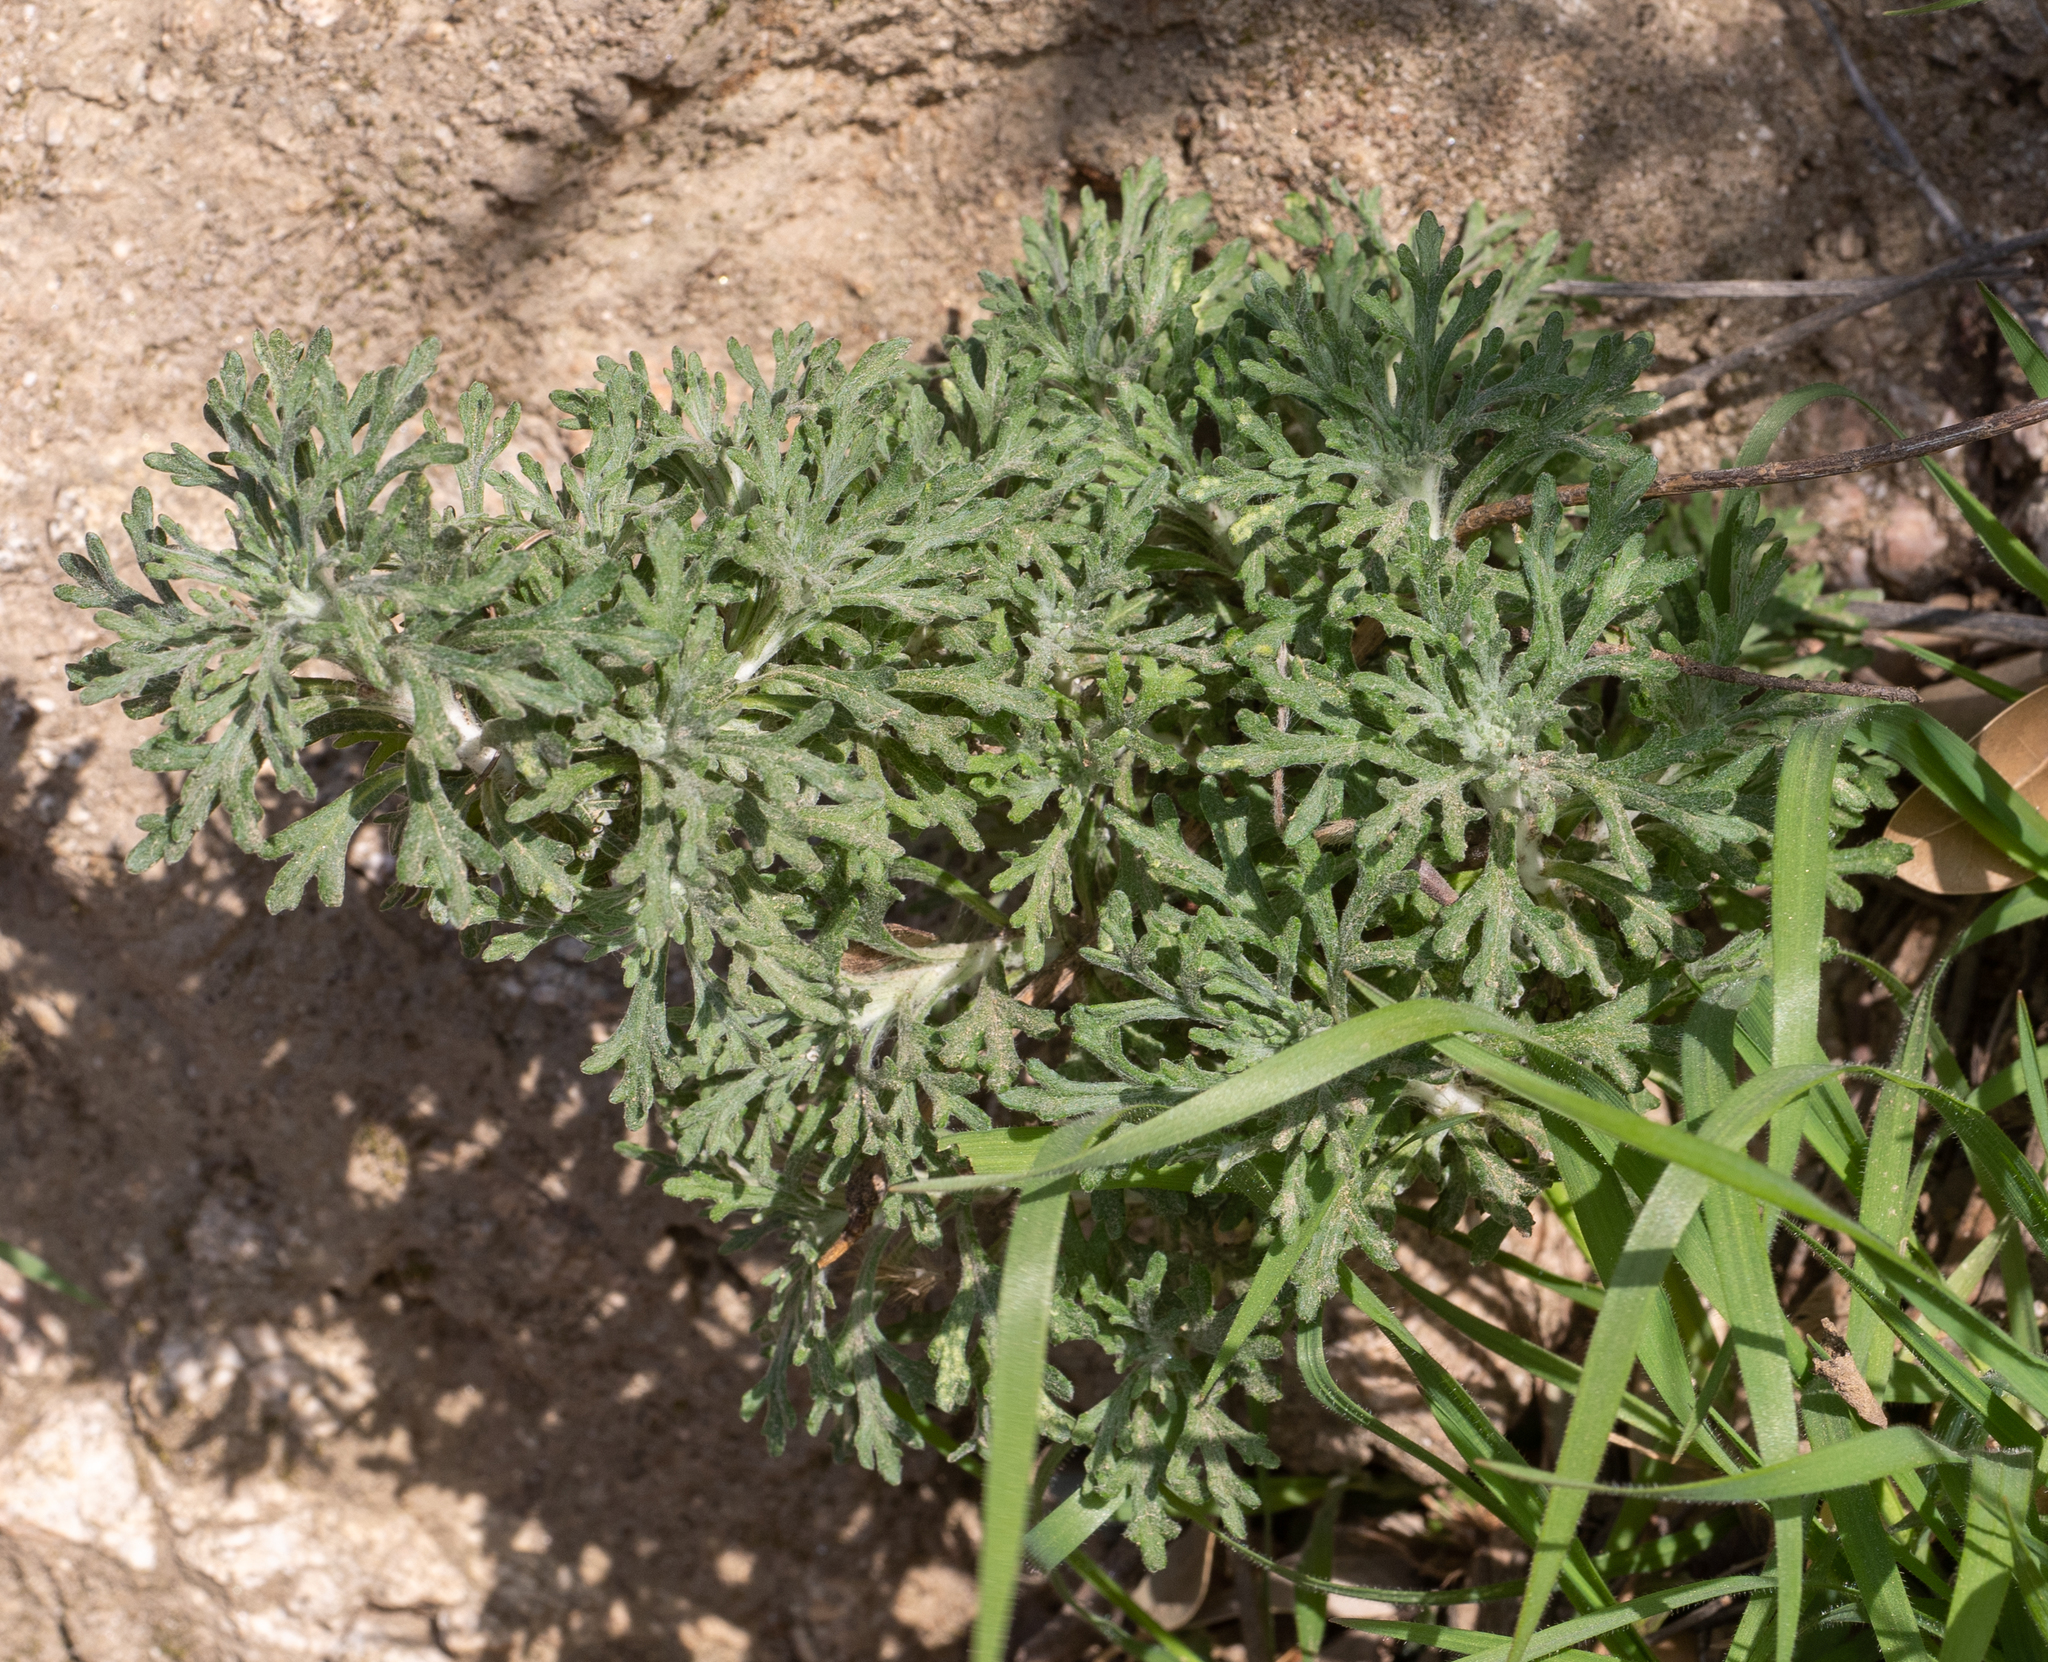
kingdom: Plantae
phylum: Tracheophyta
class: Magnoliopsida
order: Asterales
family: Asteraceae
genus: Eriophyllum
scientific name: Eriophyllum confertiflorum
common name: Golden-yarrow
